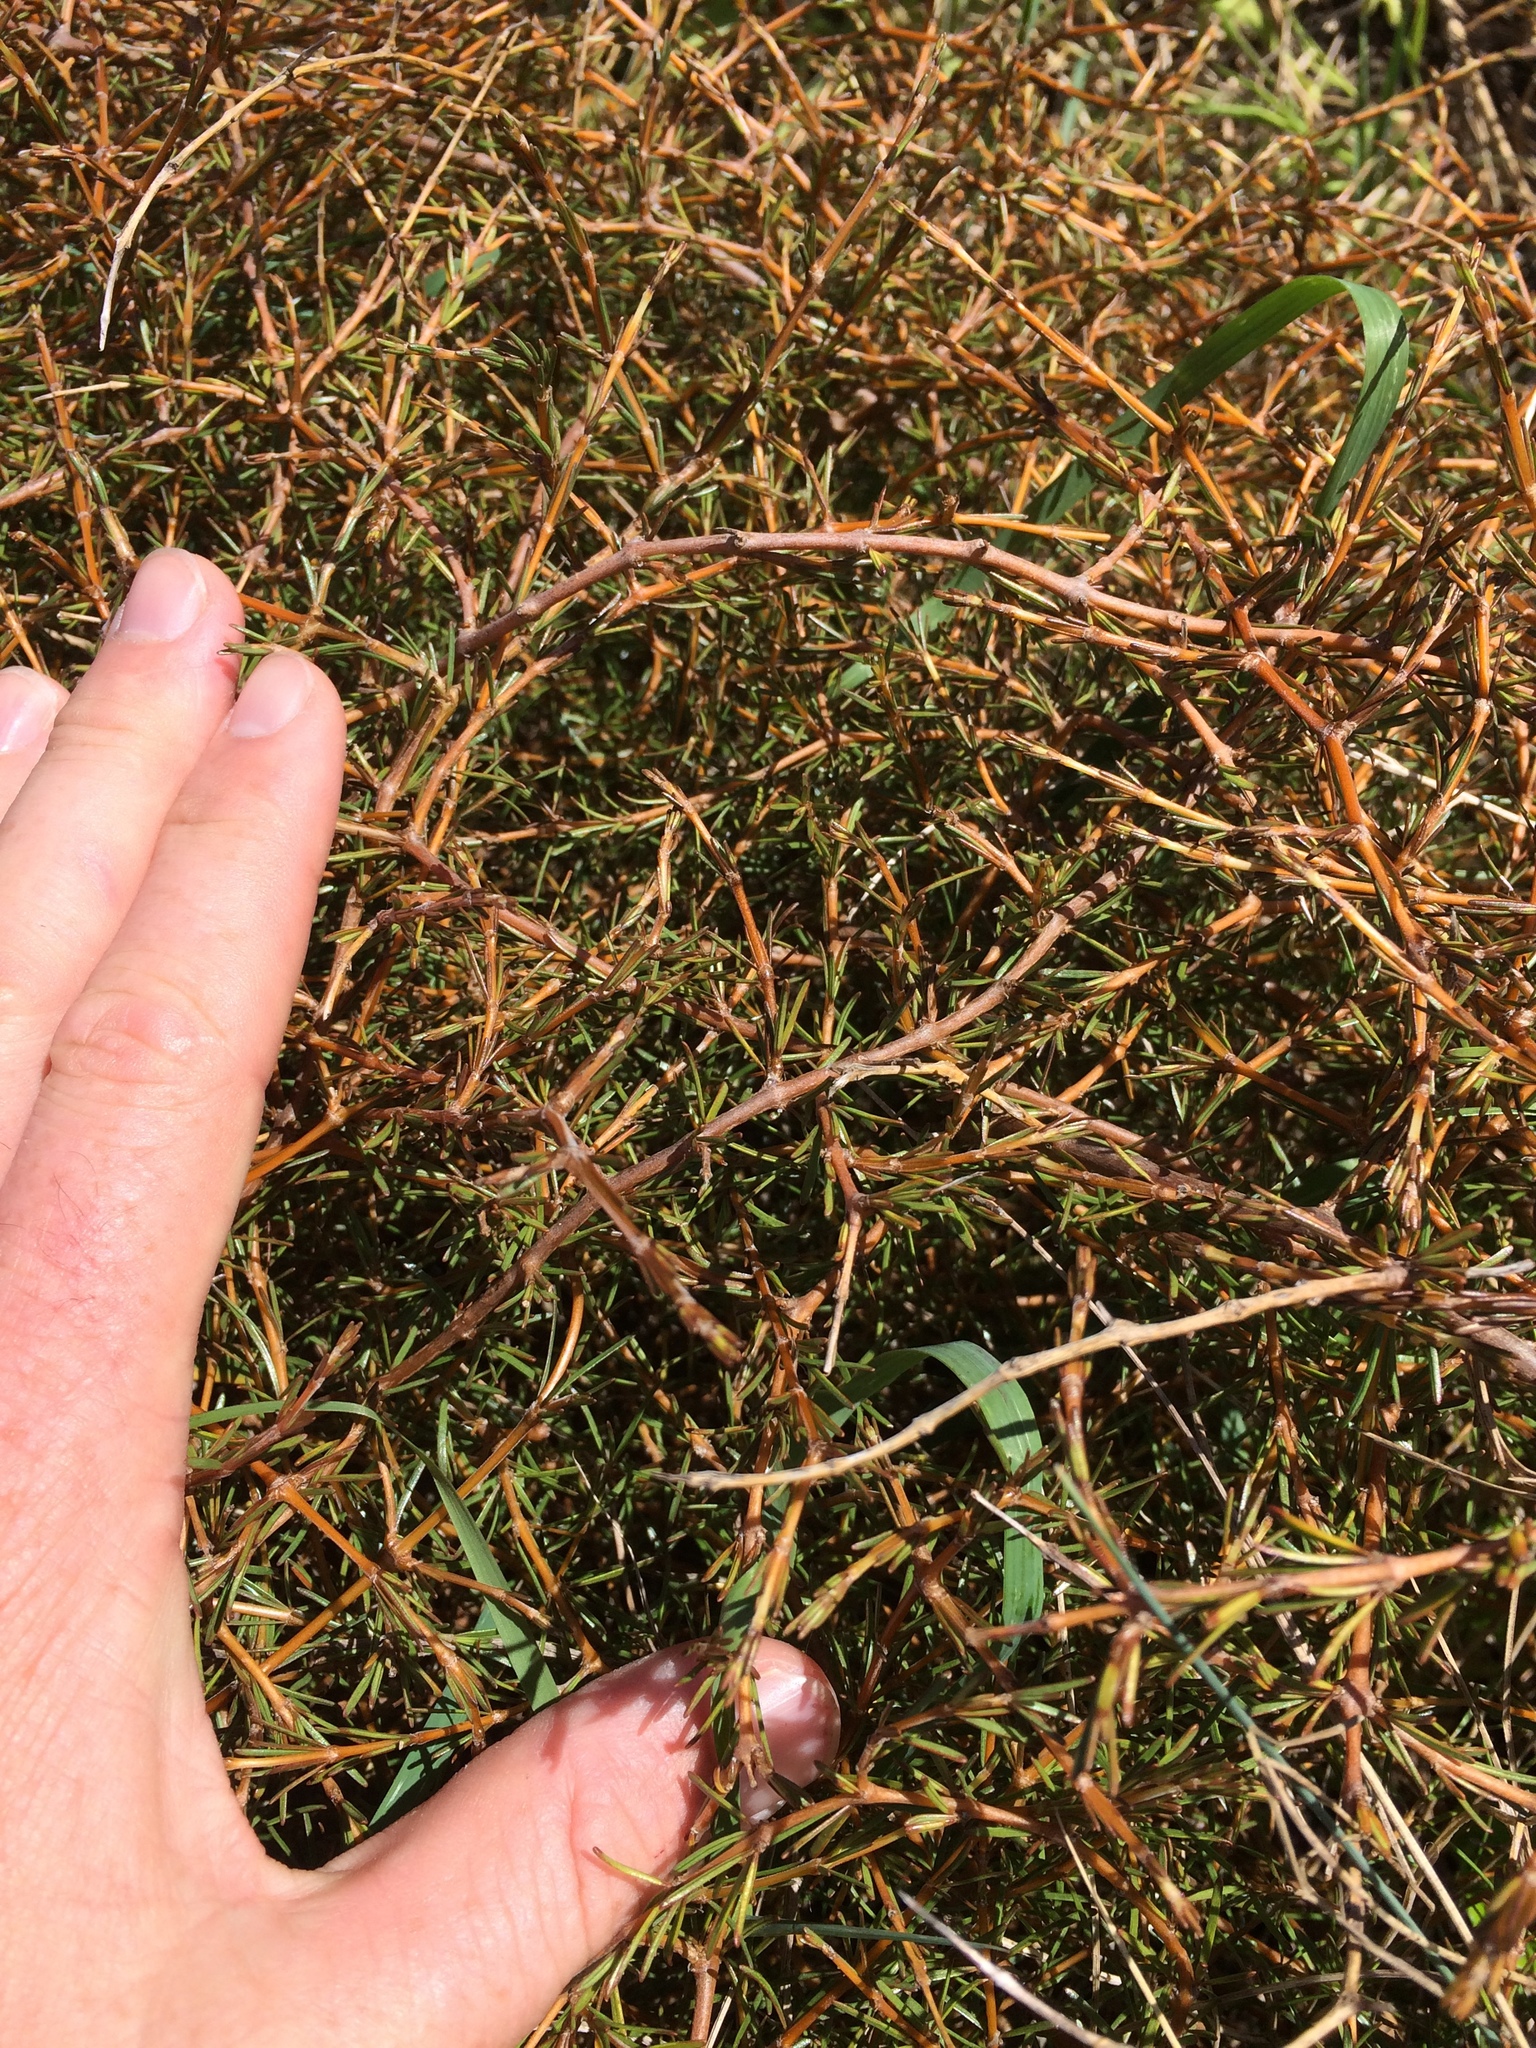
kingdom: Plantae
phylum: Tracheophyta
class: Magnoliopsida
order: Gentianales
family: Rubiaceae
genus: Coprosma
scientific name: Coprosma acerosa
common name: Sand coprosma
